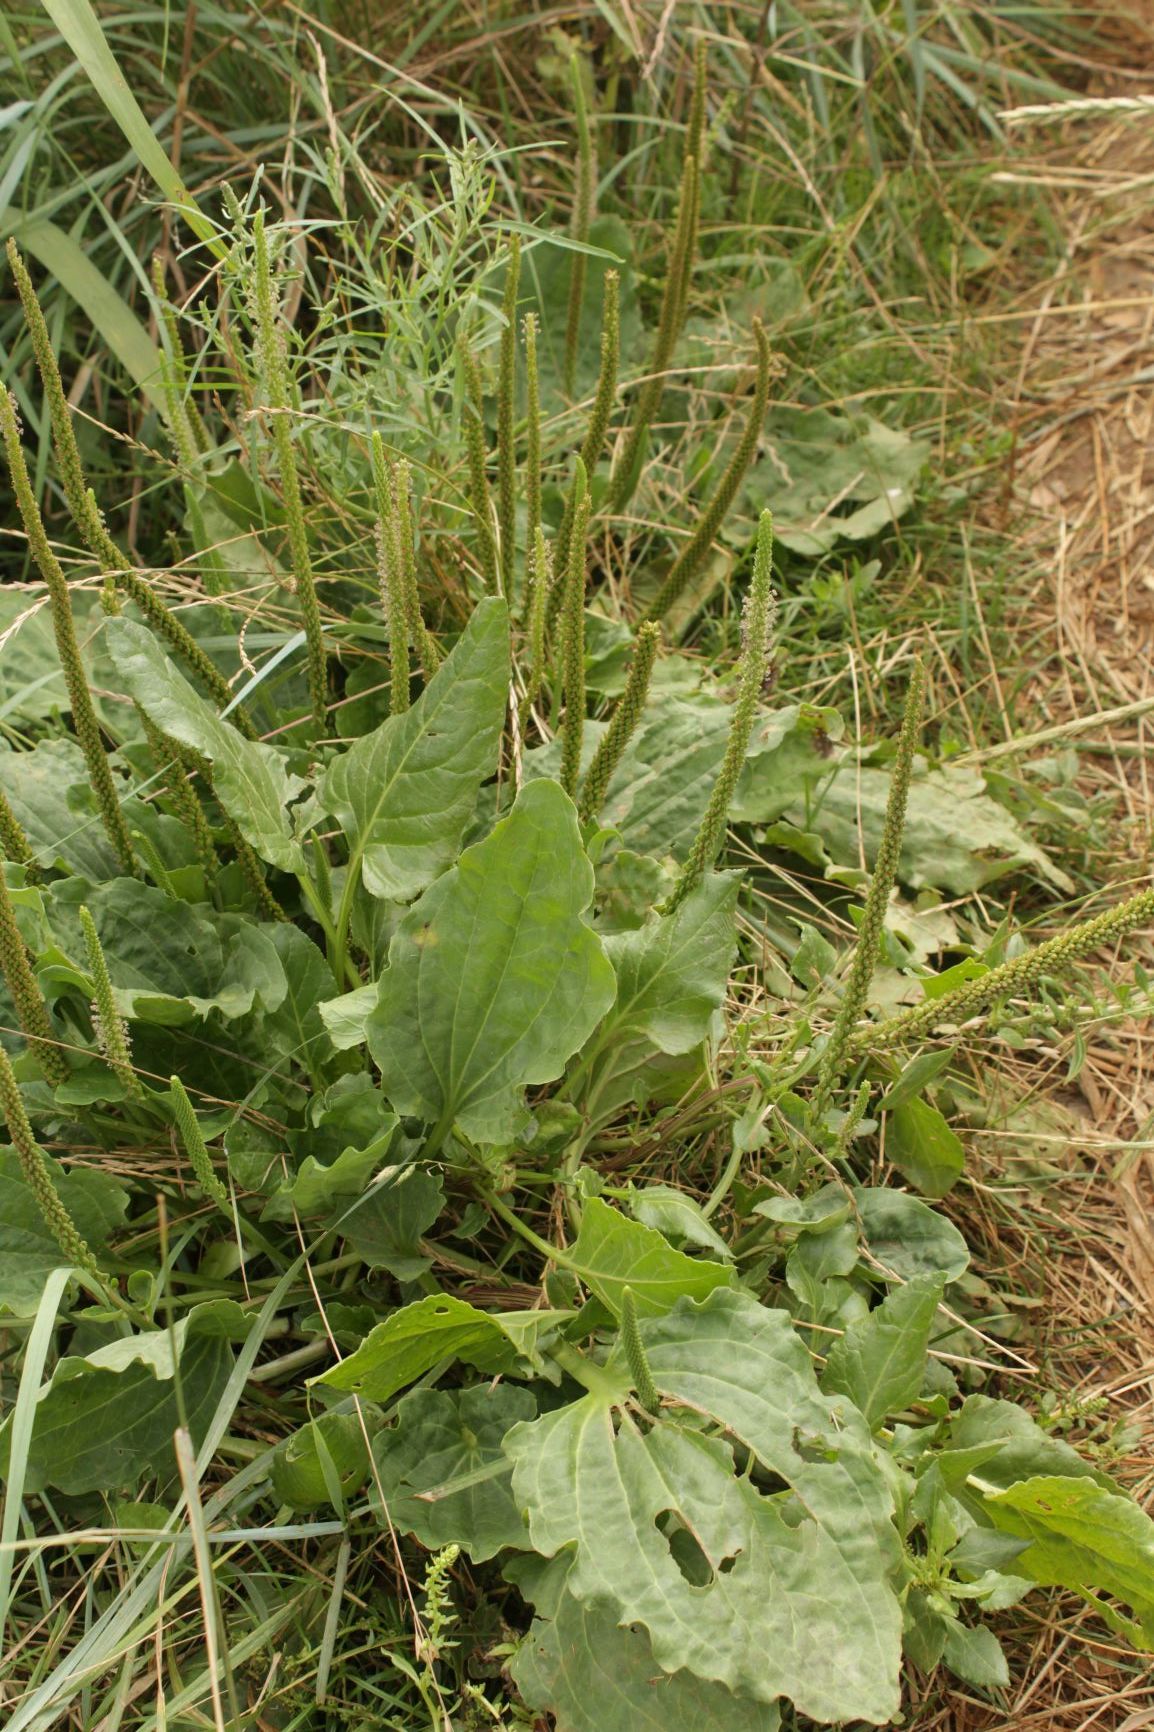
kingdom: Plantae
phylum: Tracheophyta
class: Magnoliopsida
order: Lamiales
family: Plantaginaceae
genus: Plantago
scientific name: Plantago major
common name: Common plantain
